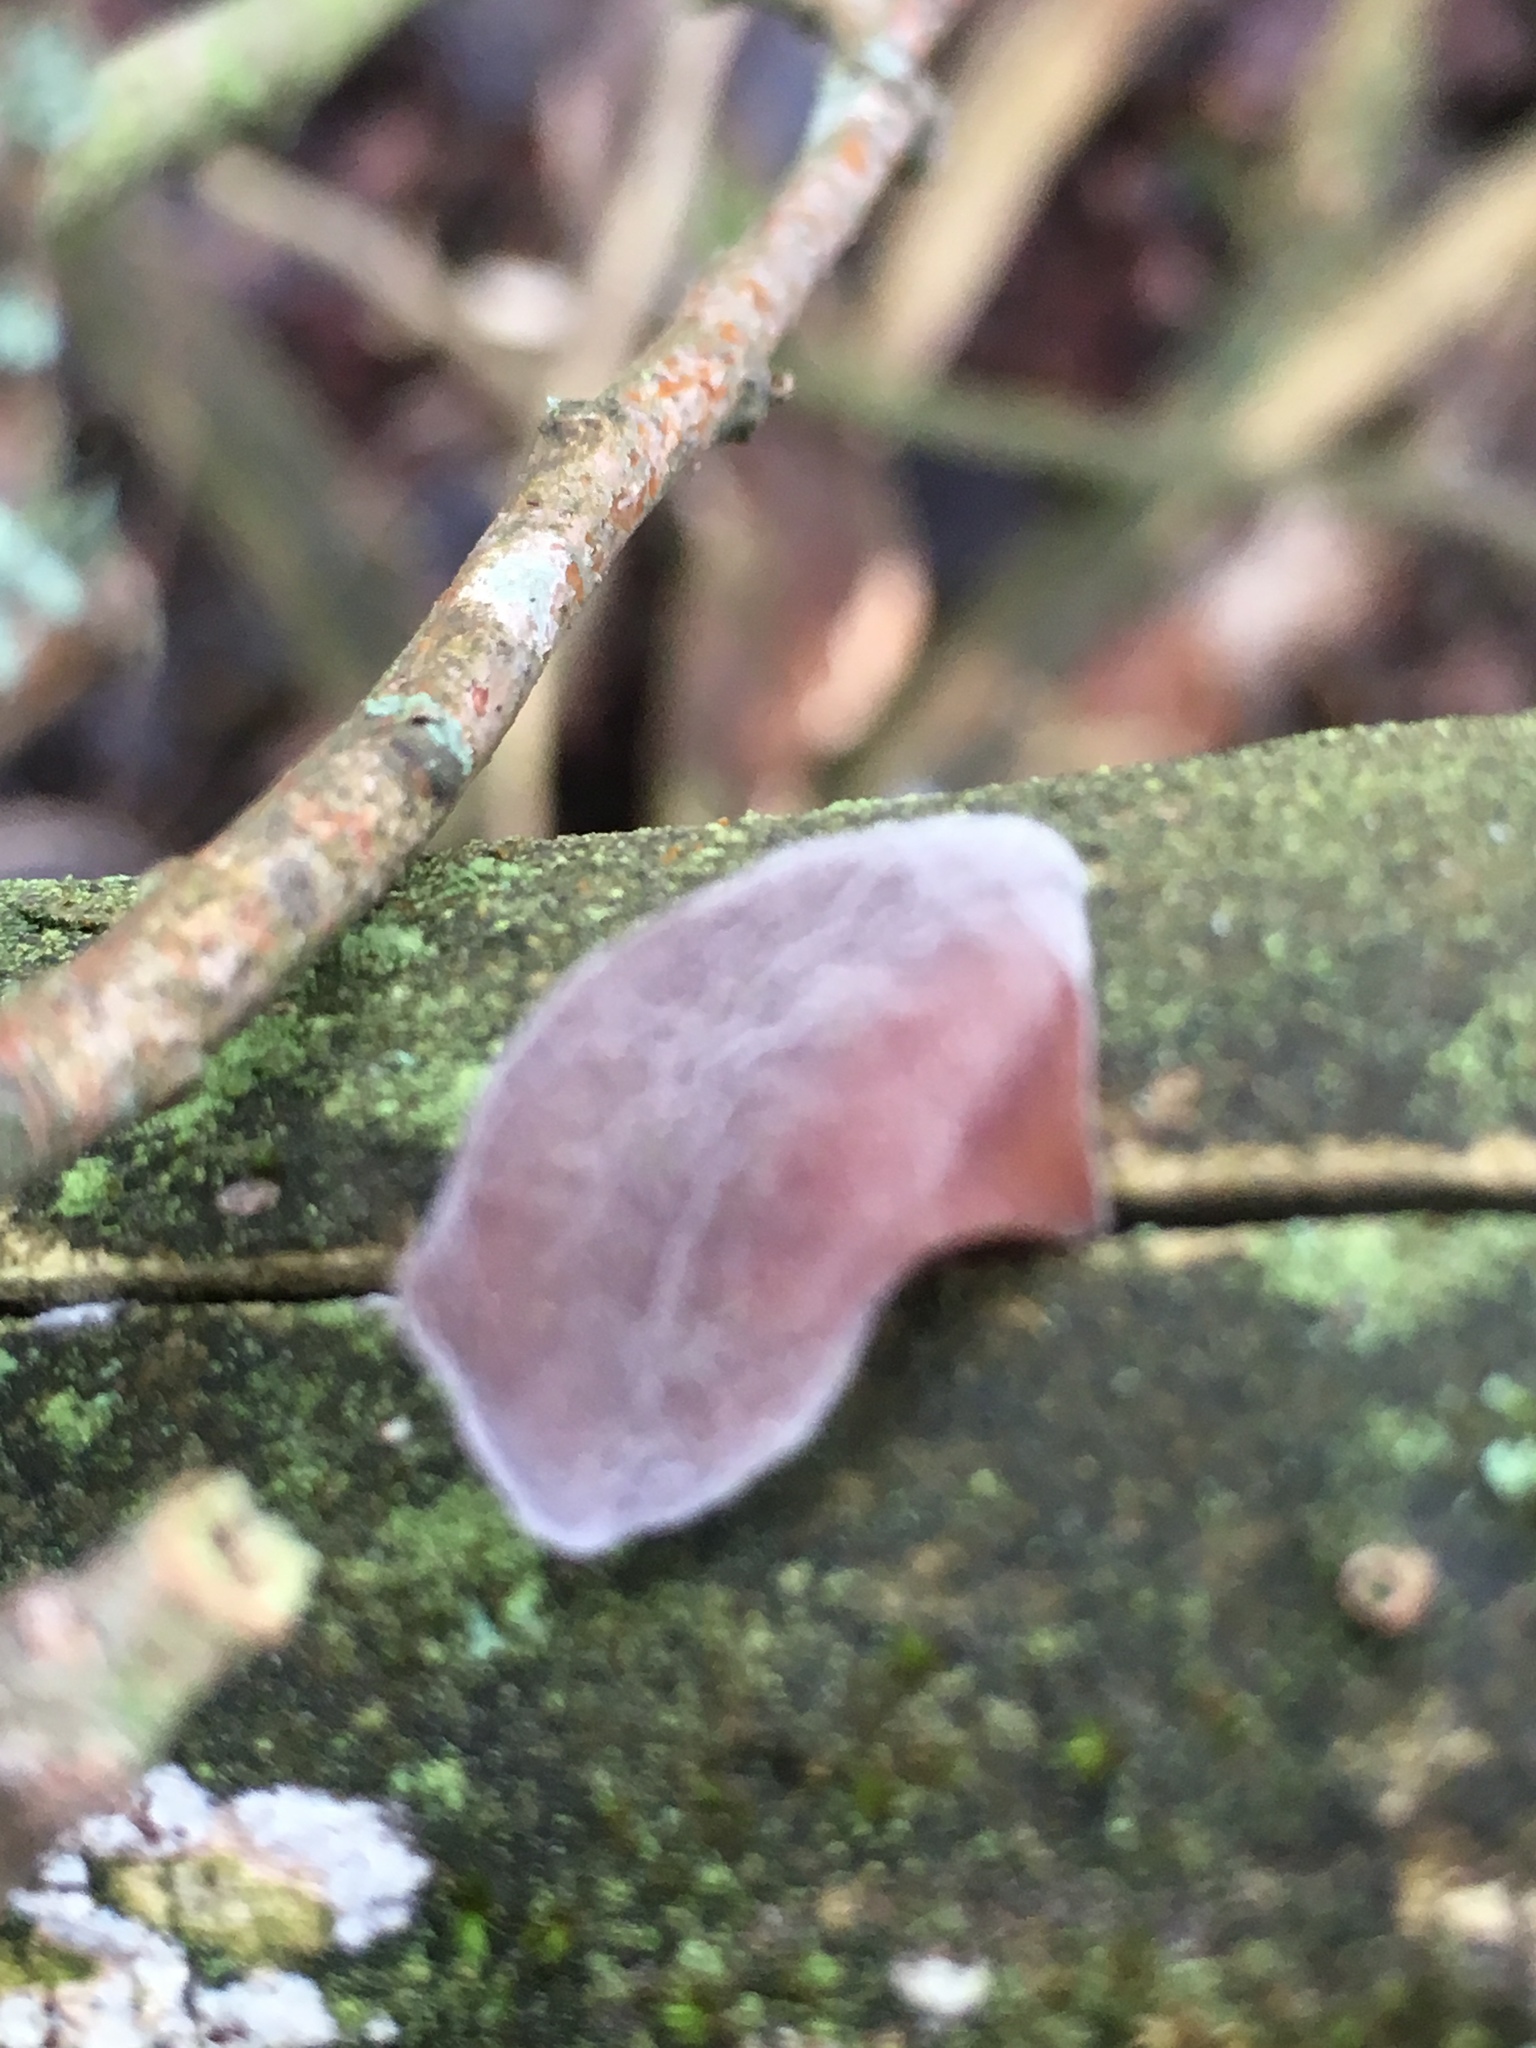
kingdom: Fungi
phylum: Basidiomycota
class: Agaricomycetes
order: Auriculariales
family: Auriculariaceae
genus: Auricularia
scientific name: Auricularia auricula-judae
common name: Jelly ear
